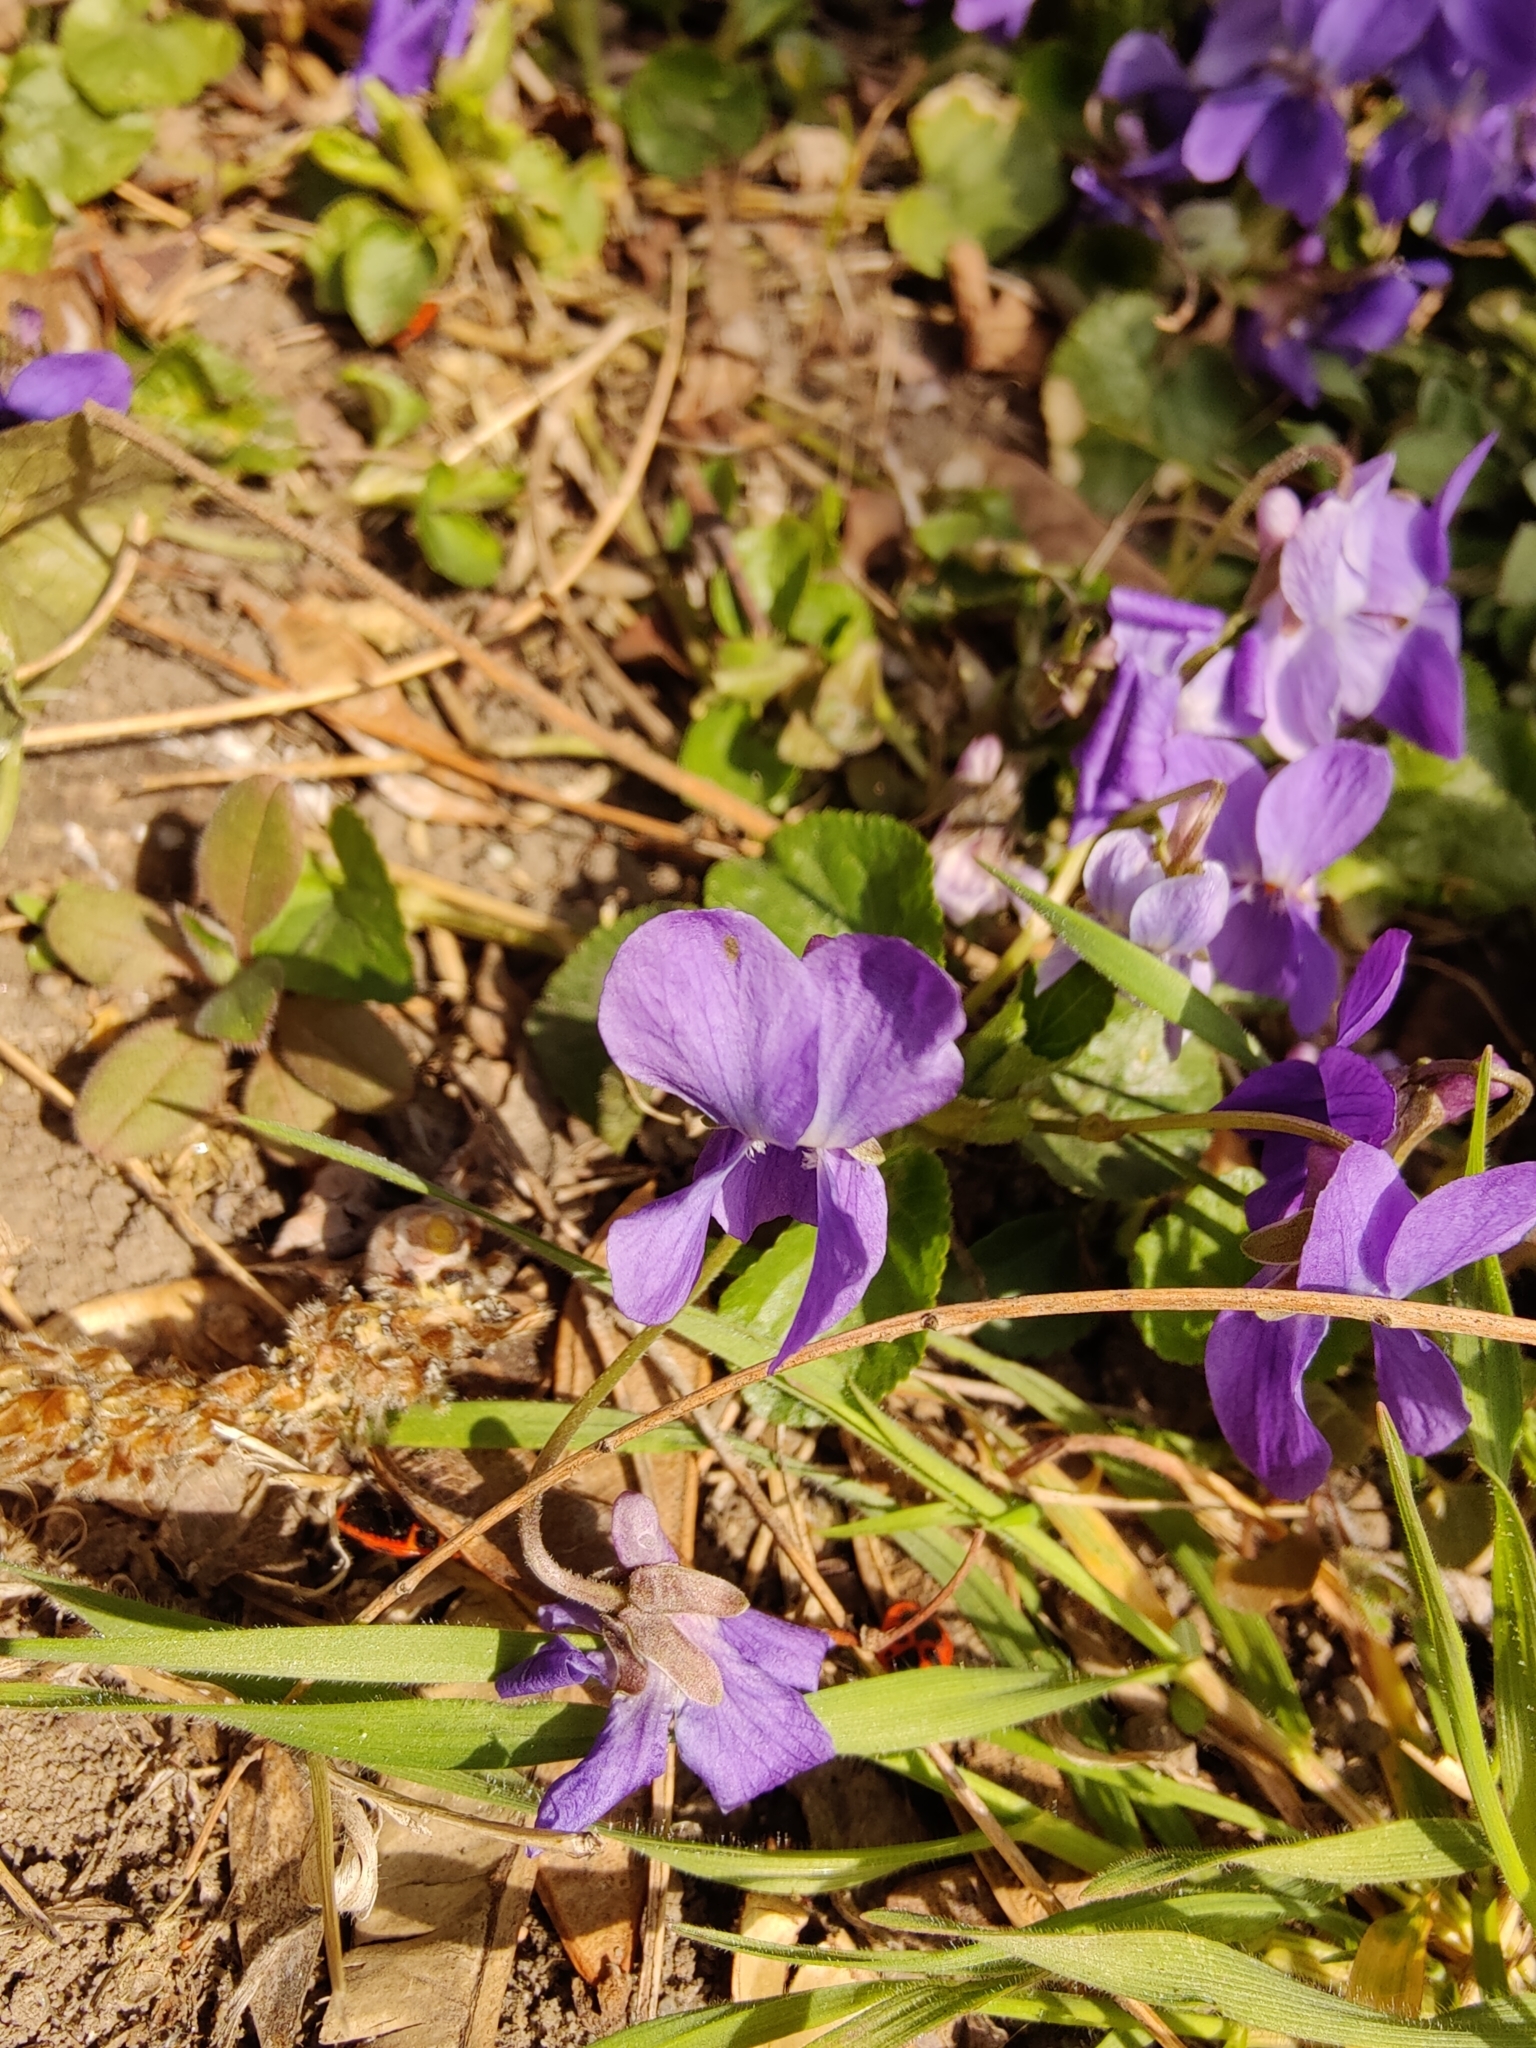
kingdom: Plantae
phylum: Tracheophyta
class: Magnoliopsida
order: Malpighiales
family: Violaceae
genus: Viola
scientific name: Viola odorata
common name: Sweet violet
